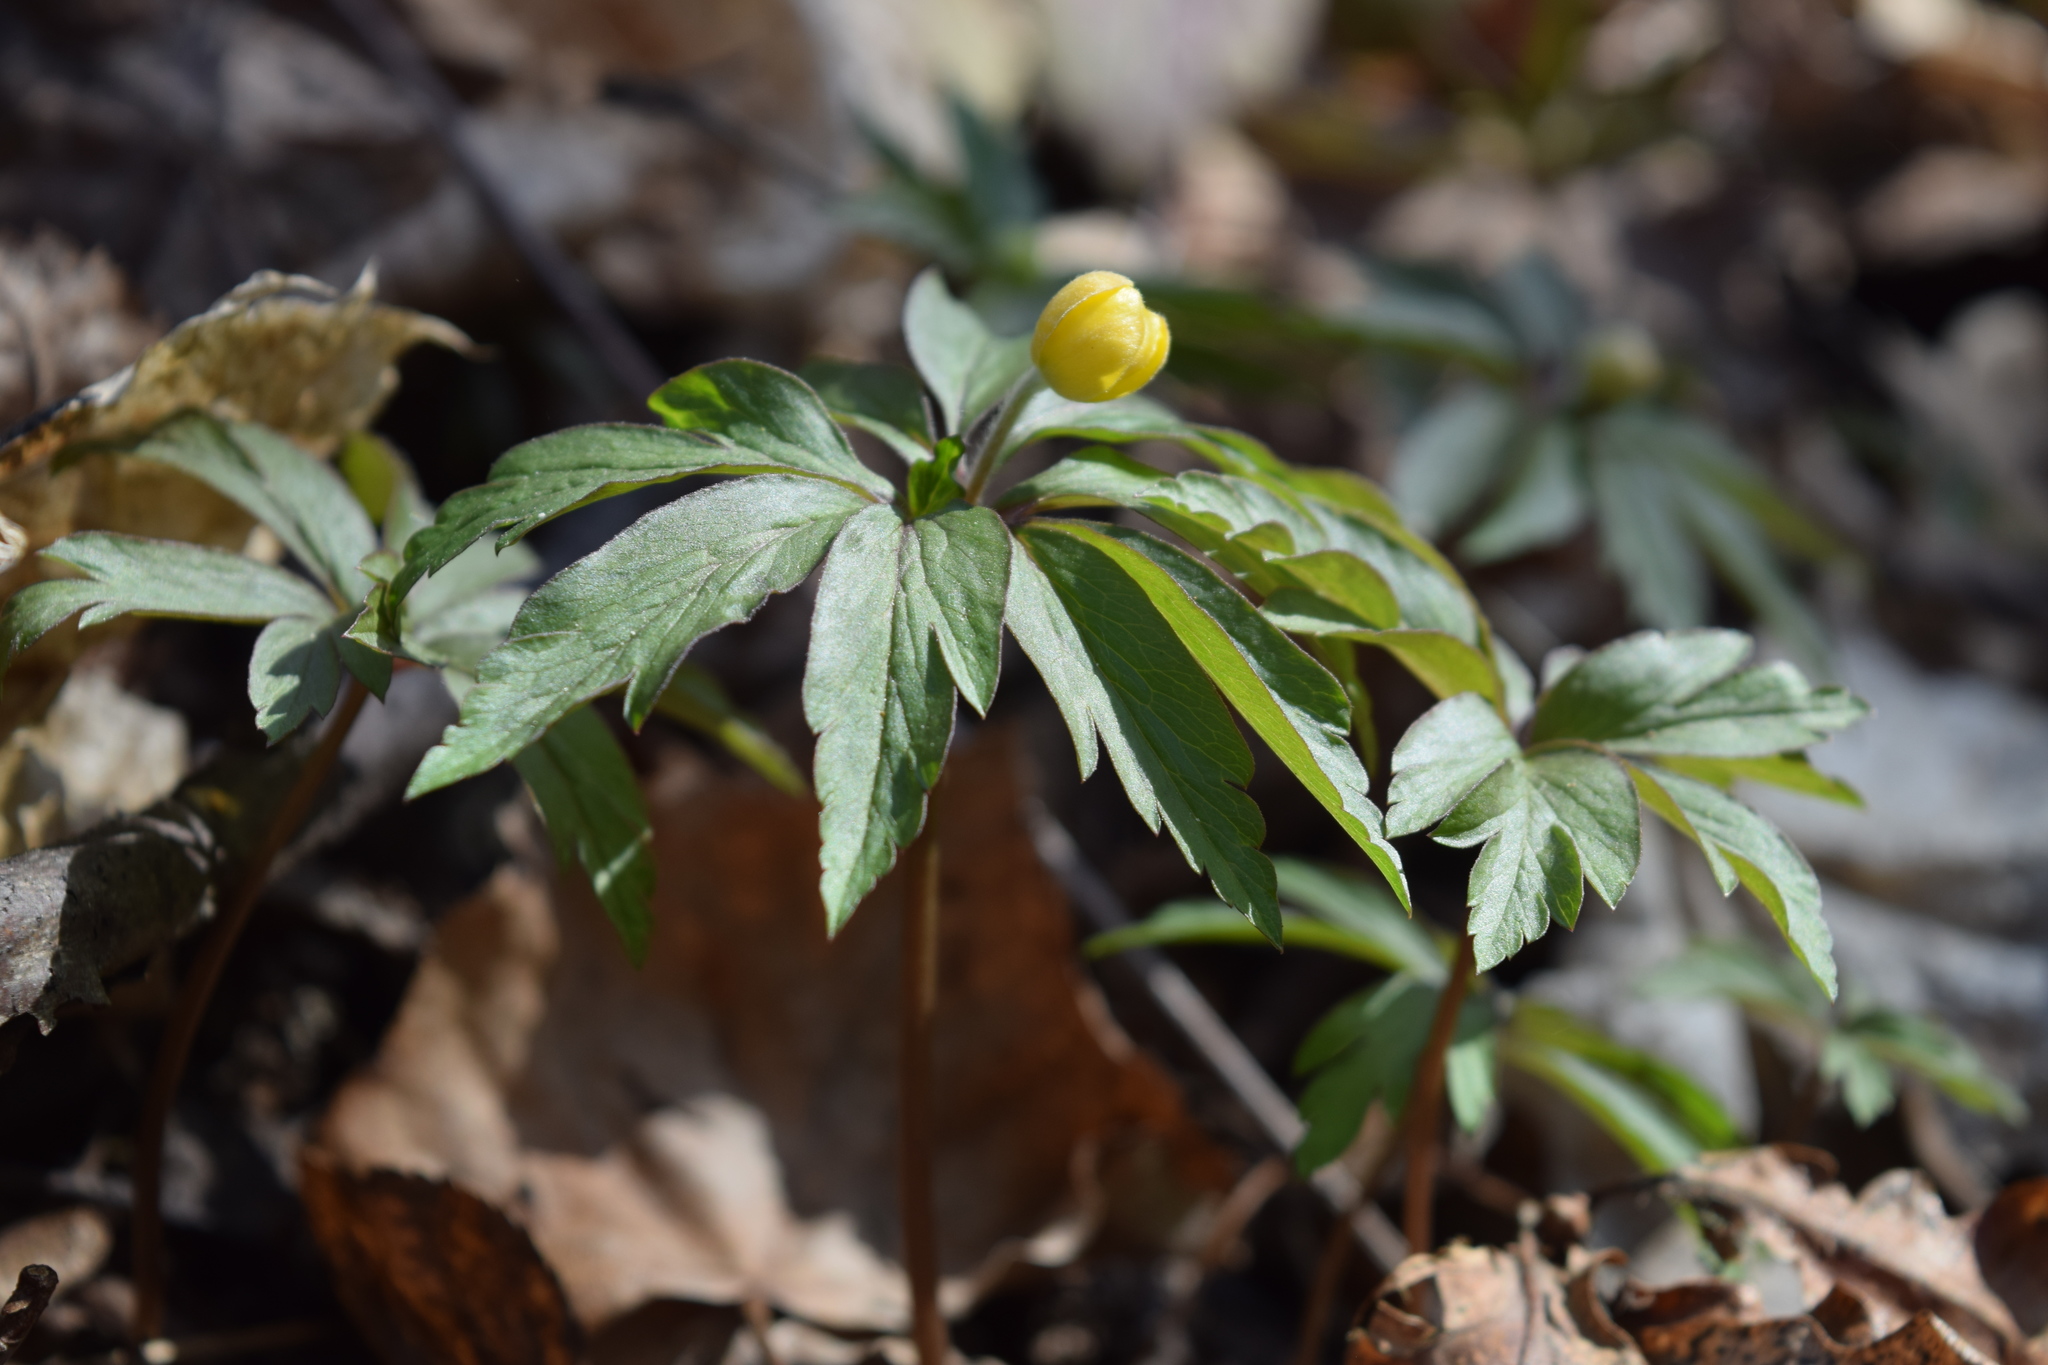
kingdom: Plantae
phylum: Tracheophyta
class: Magnoliopsida
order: Ranunculales
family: Ranunculaceae
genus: Anemone
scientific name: Anemone ranunculoides
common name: Yellow anemone
